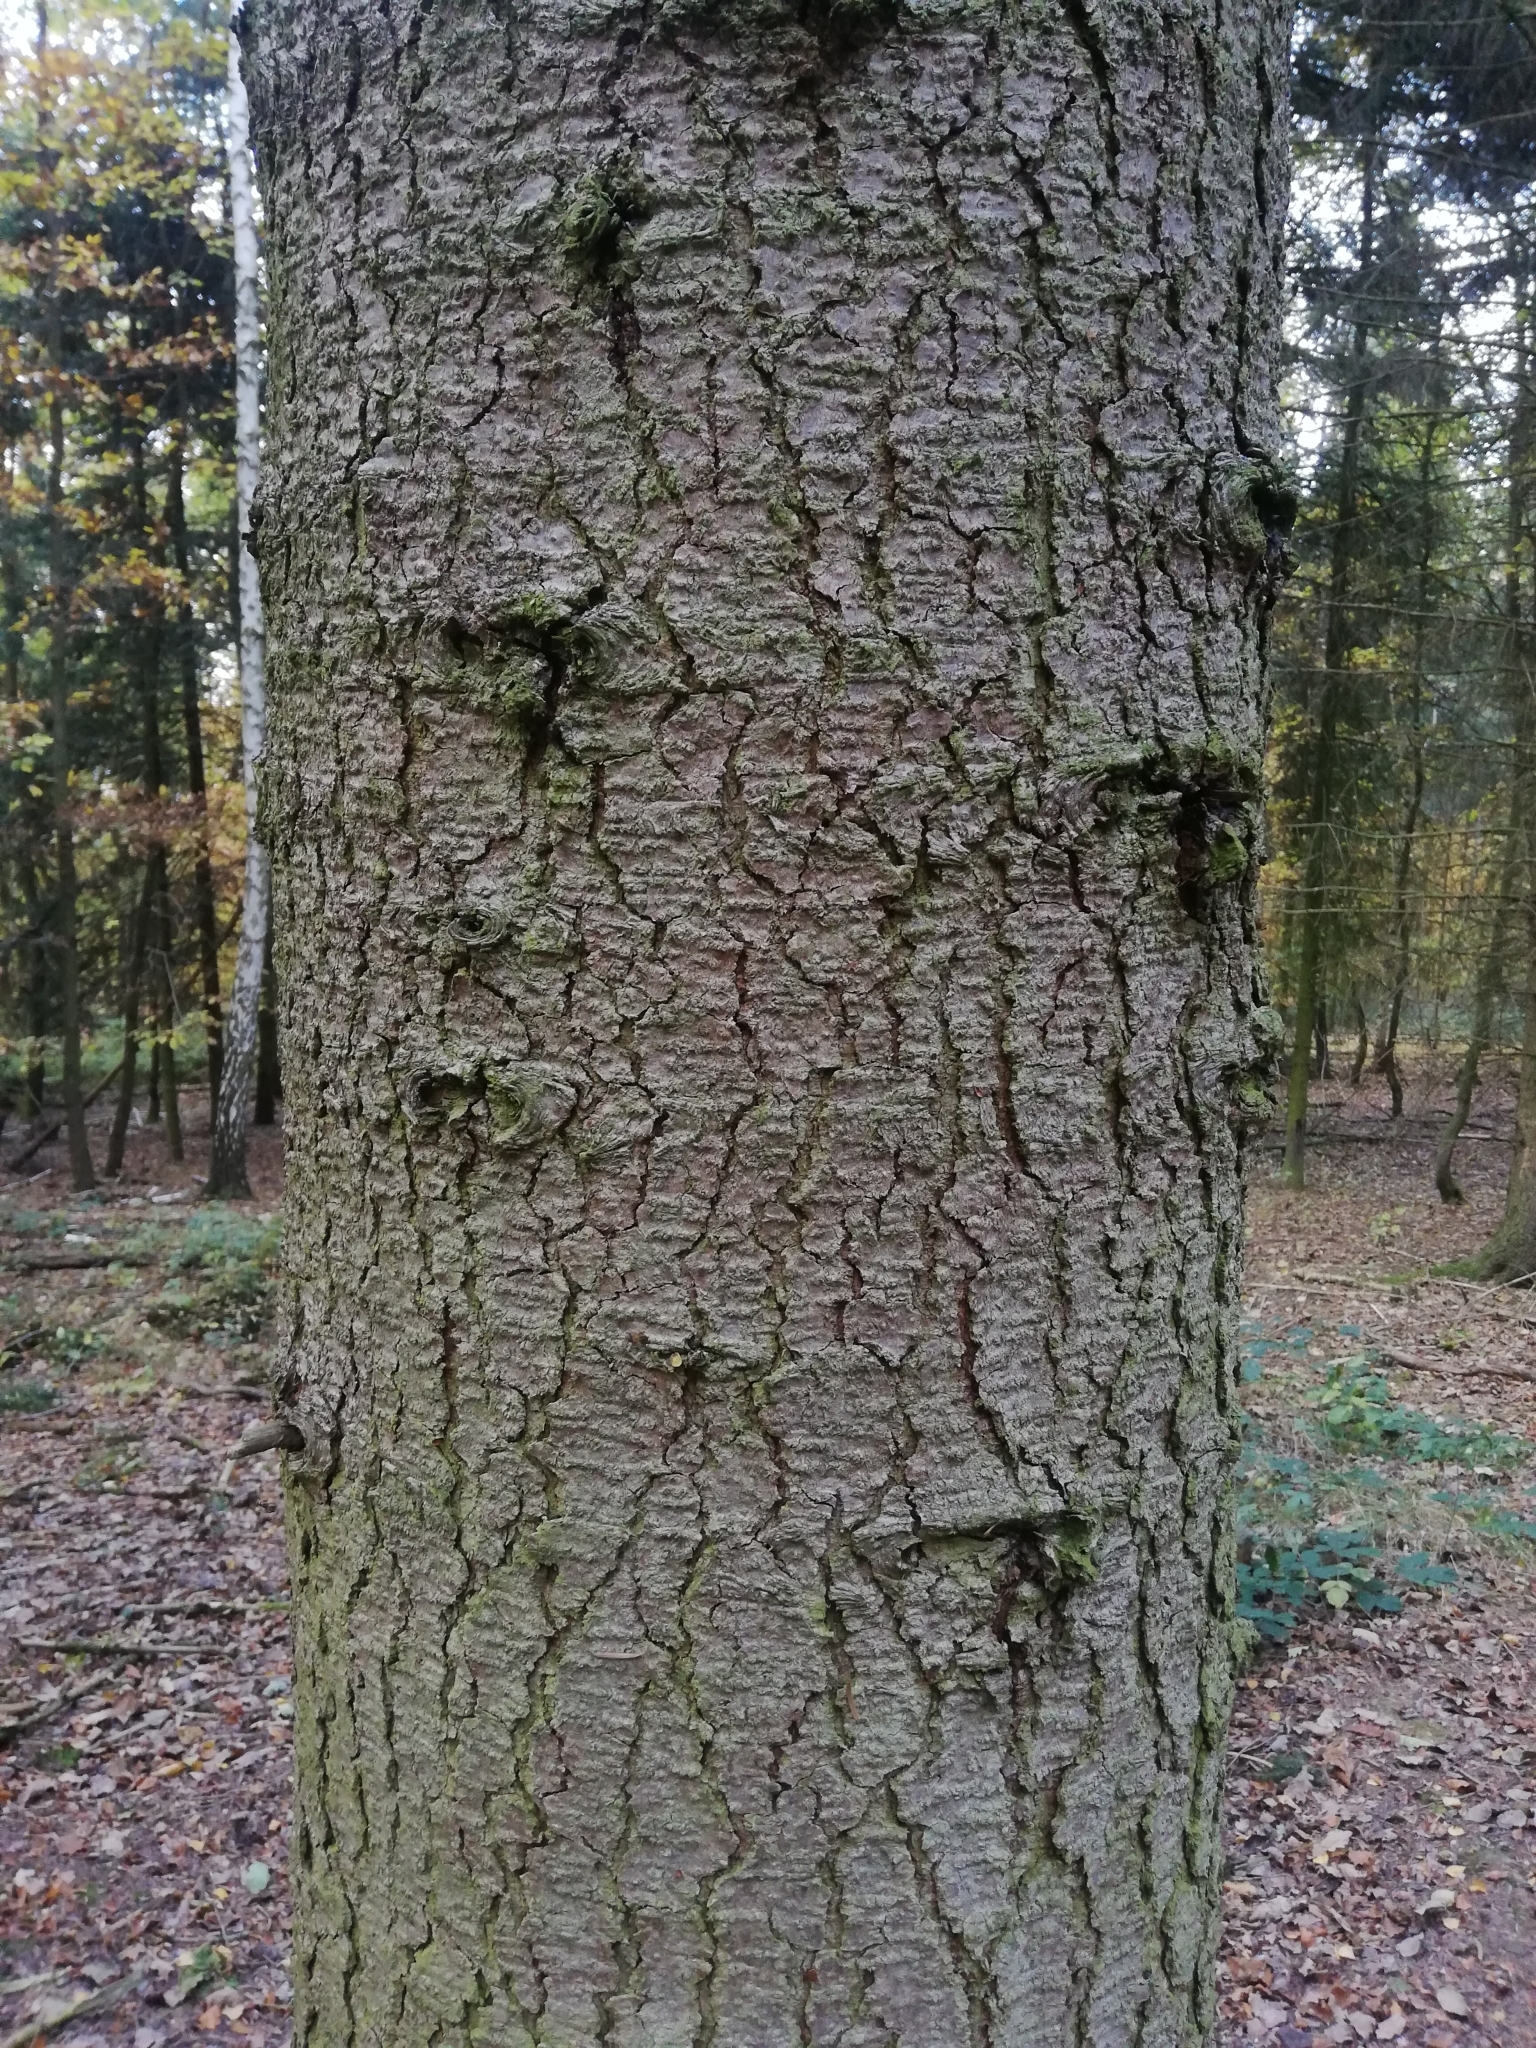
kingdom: Plantae
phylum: Tracheophyta
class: Pinopsida
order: Pinales
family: Pinaceae
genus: Abies
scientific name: Abies alba
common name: Silver fir
